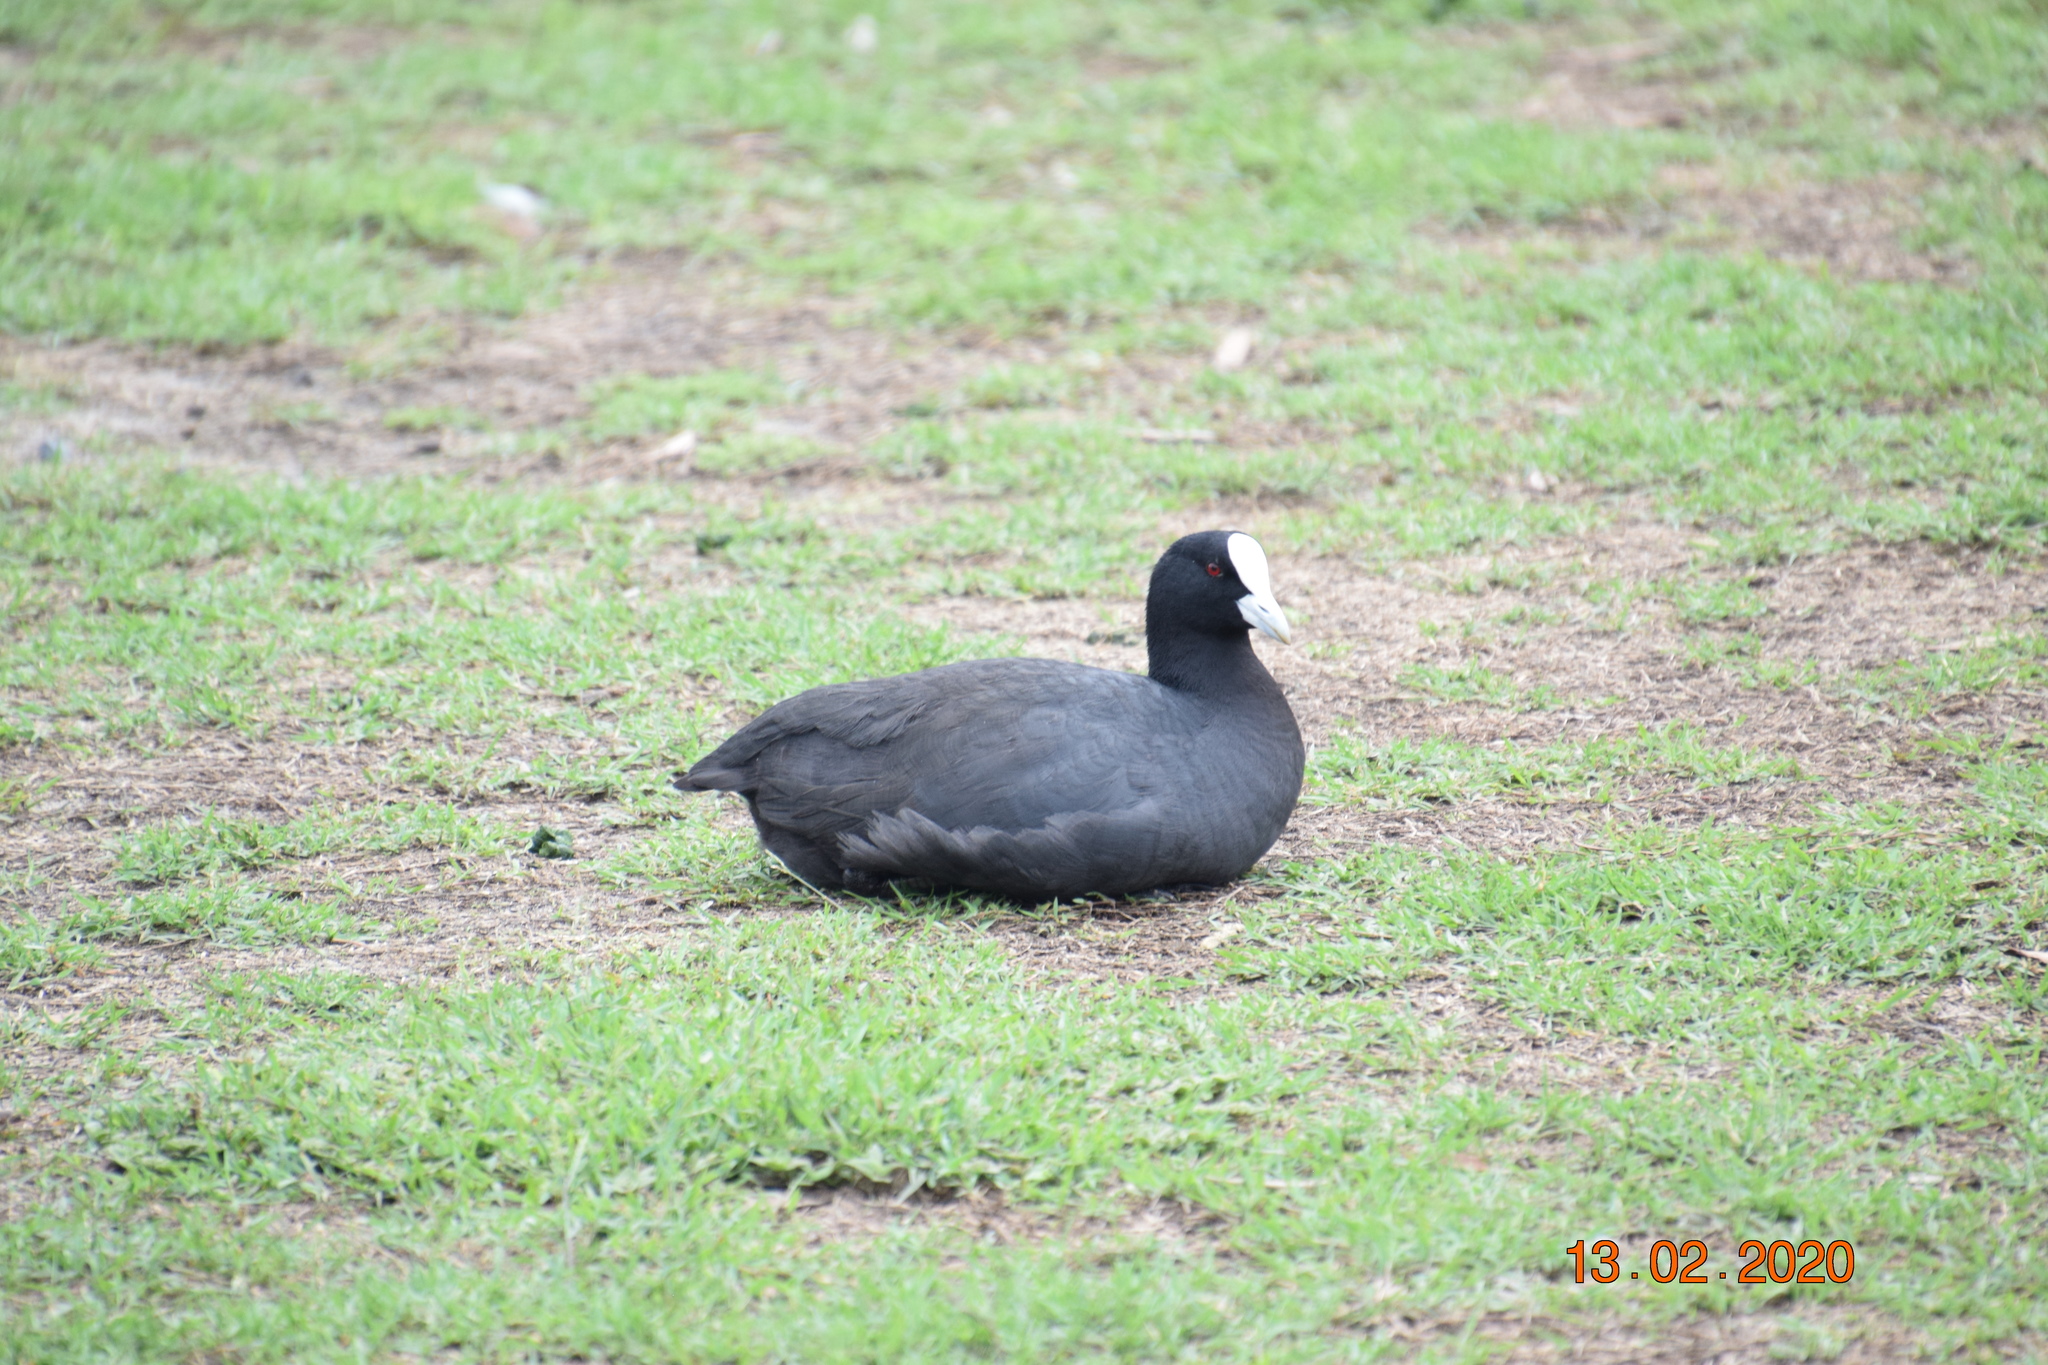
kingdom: Animalia
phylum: Chordata
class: Aves
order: Gruiformes
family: Rallidae
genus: Fulica
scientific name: Fulica atra
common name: Eurasian coot
